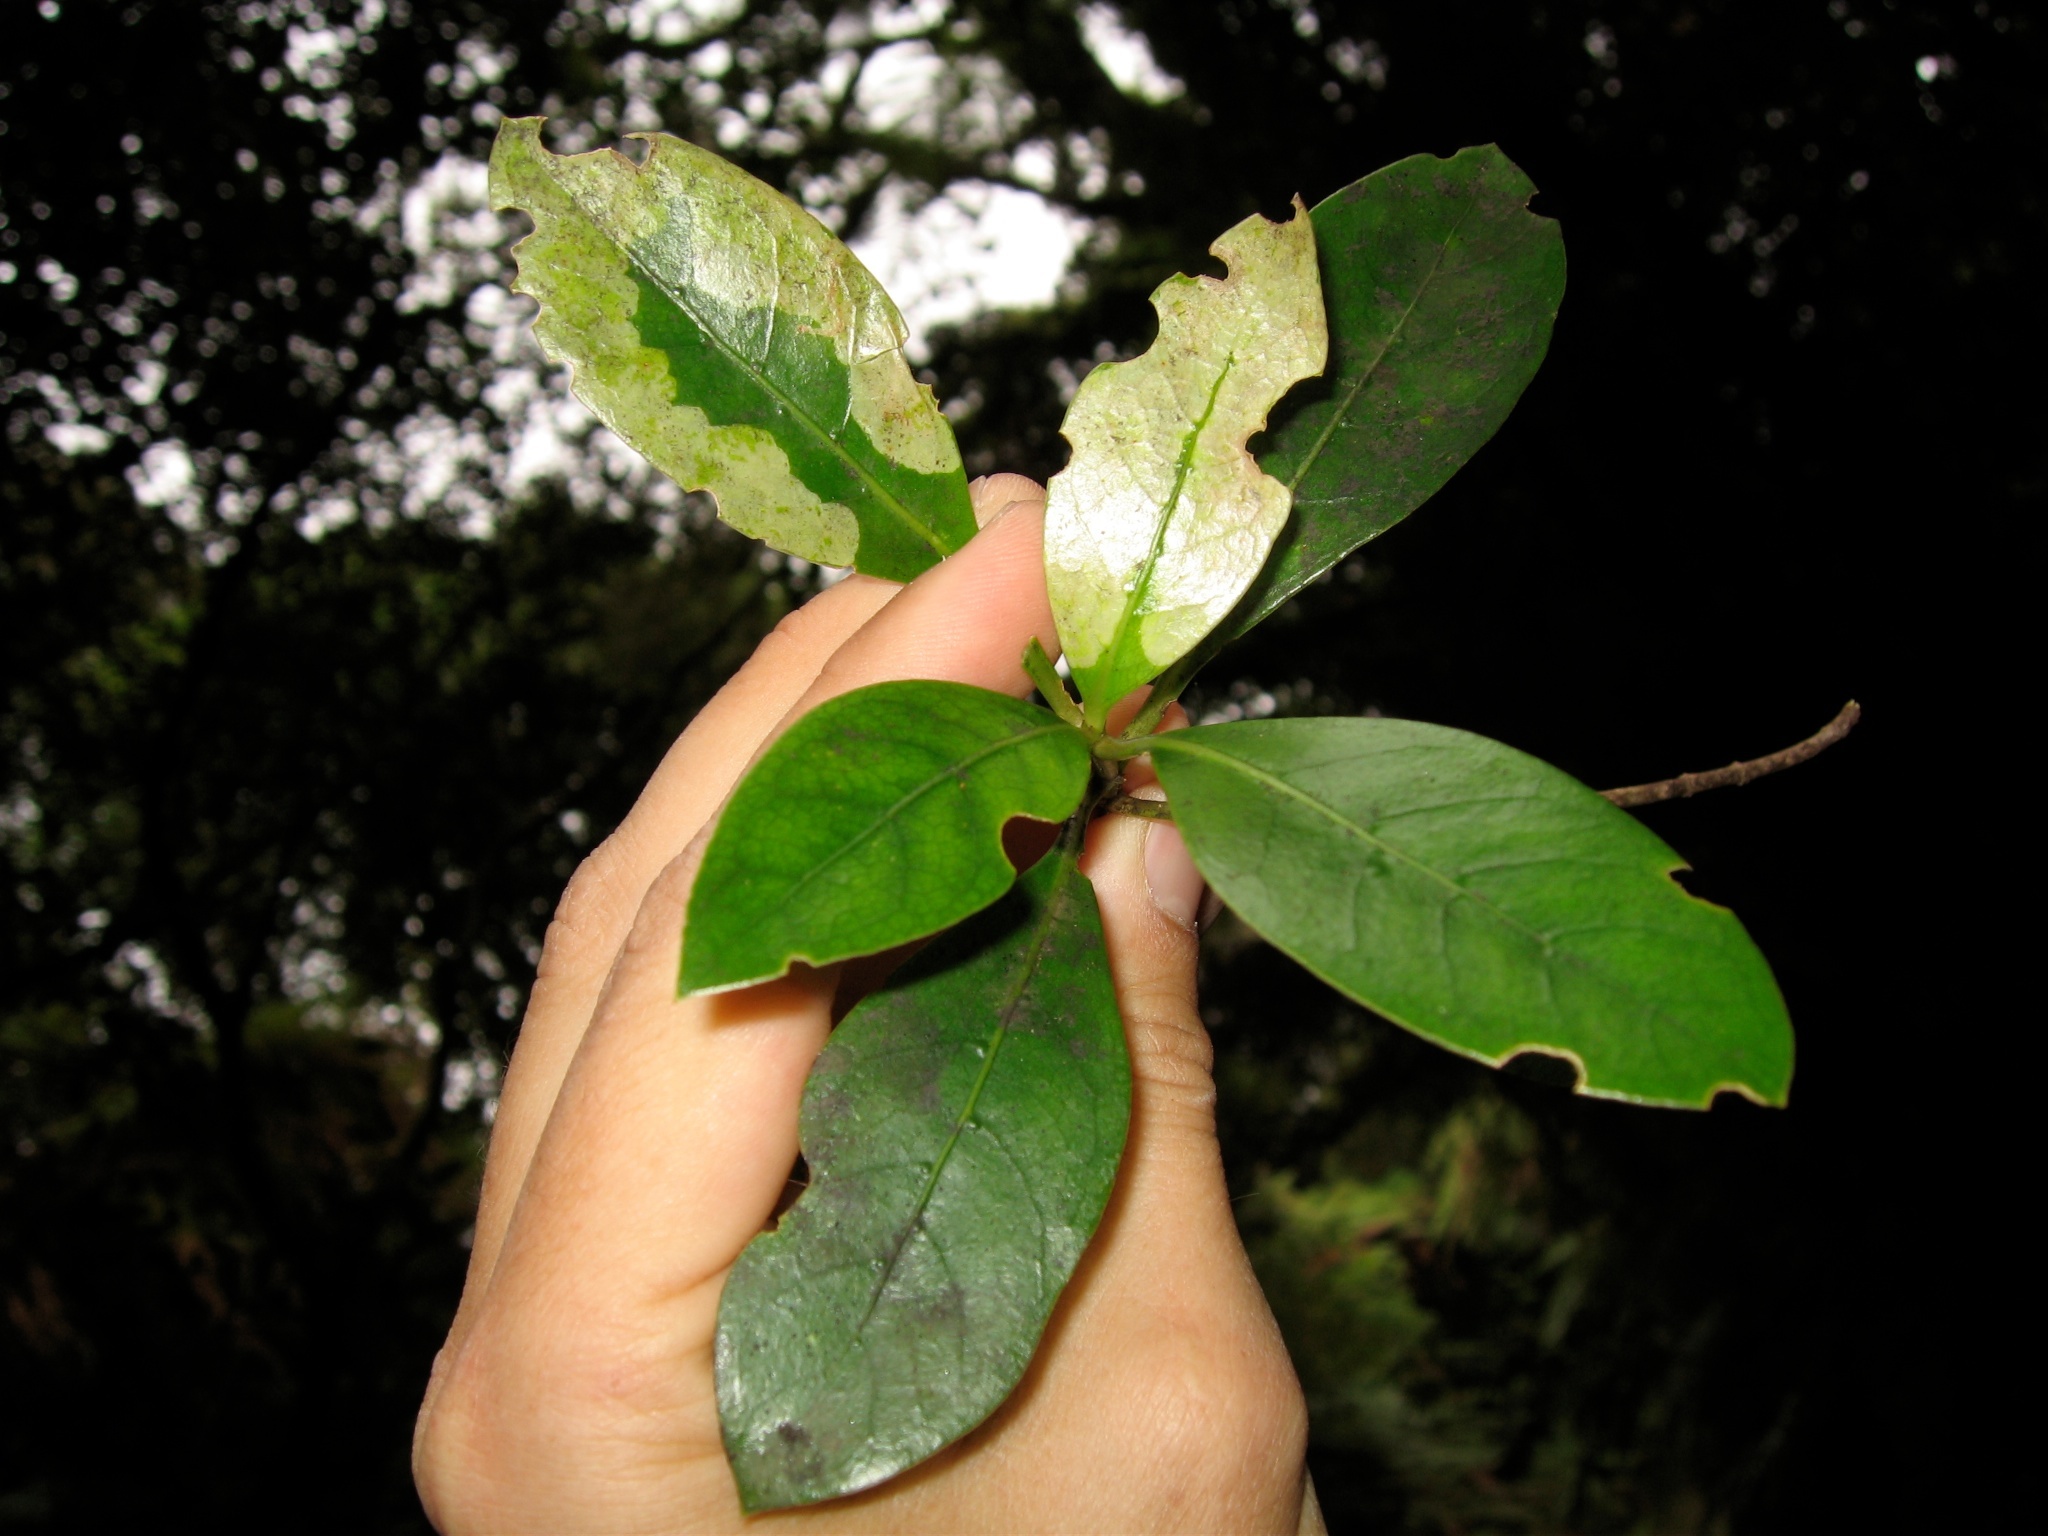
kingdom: Plantae
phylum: Tracheophyta
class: Magnoliopsida
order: Gentianales
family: Rubiaceae
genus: Coprosma
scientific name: Coprosma lucida
